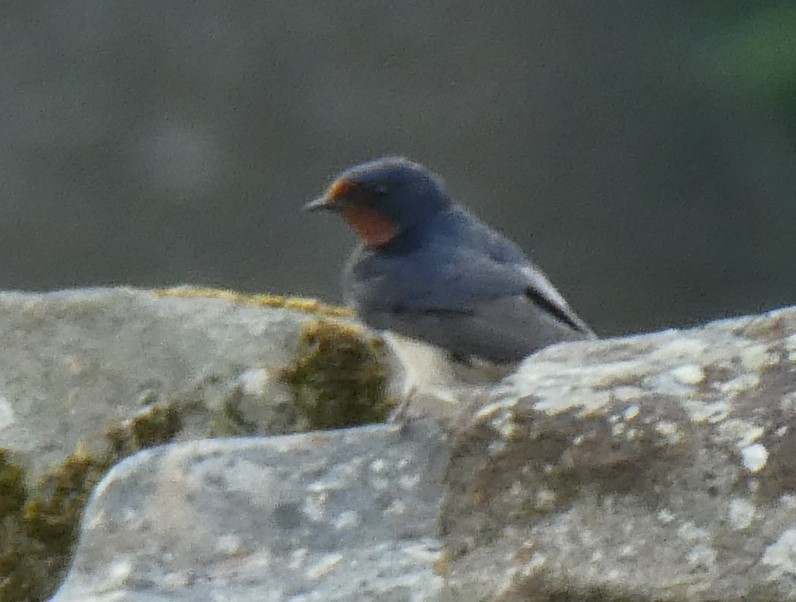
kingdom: Animalia
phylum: Chordata
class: Aves
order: Passeriformes
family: Hirundinidae
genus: Hirundo
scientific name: Hirundo rustica
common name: Barn swallow
